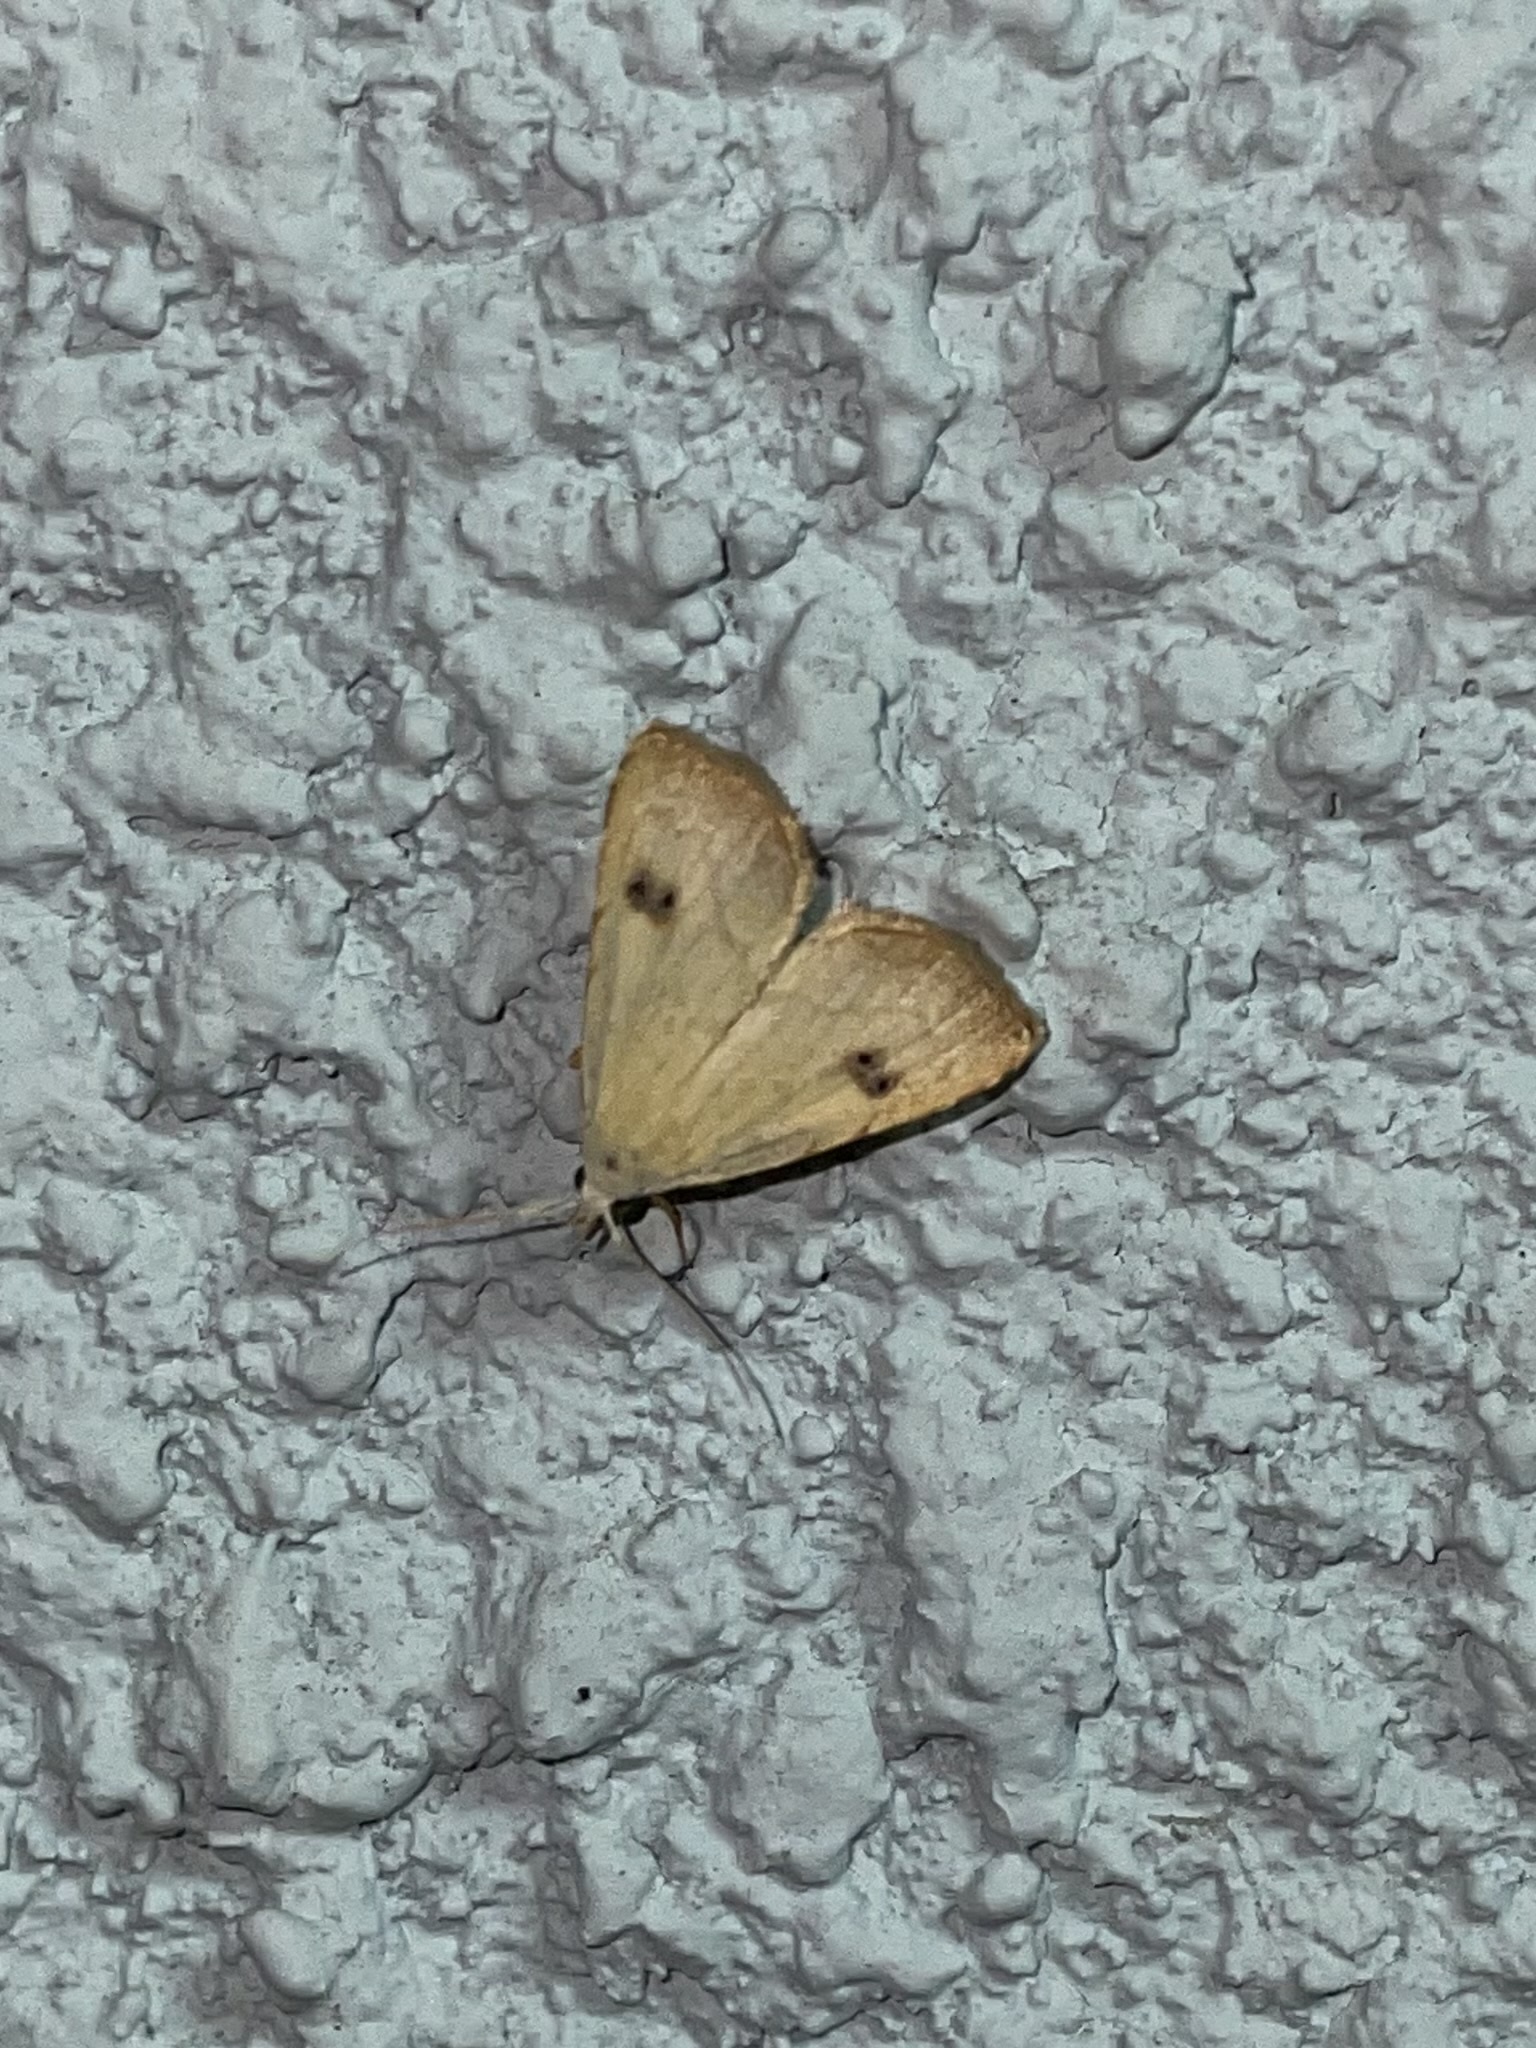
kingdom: Animalia
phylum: Arthropoda
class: Insecta
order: Lepidoptera
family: Erebidae
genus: Rivula
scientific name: Rivula sericealis
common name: Straw dot
